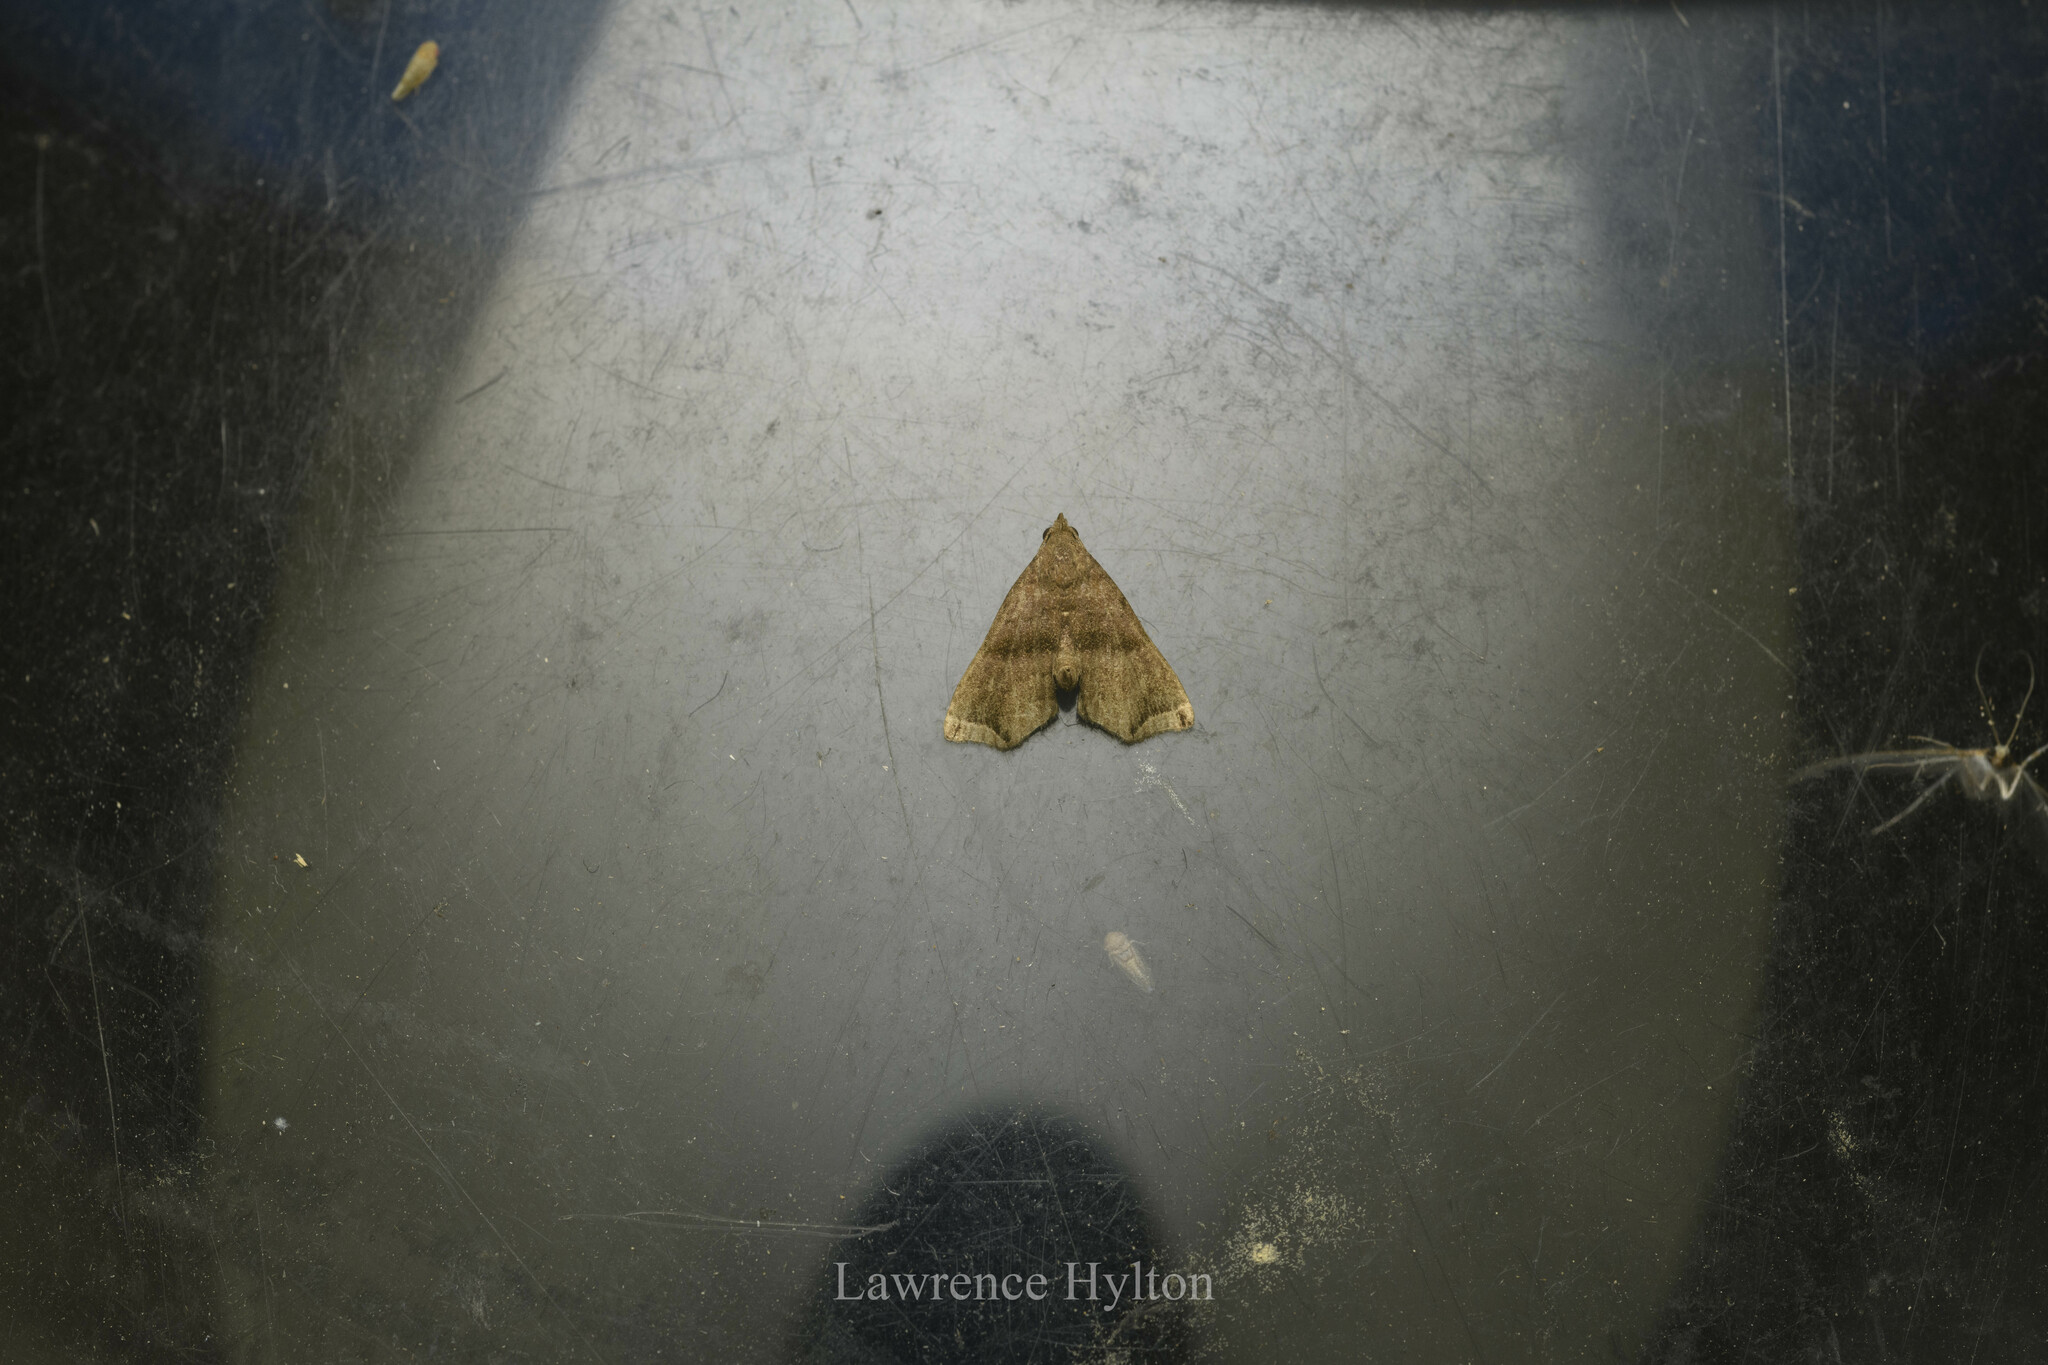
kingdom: Animalia
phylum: Arthropoda
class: Insecta
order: Lepidoptera
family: Erebidae
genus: Polypogon
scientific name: Polypogon biasalis
